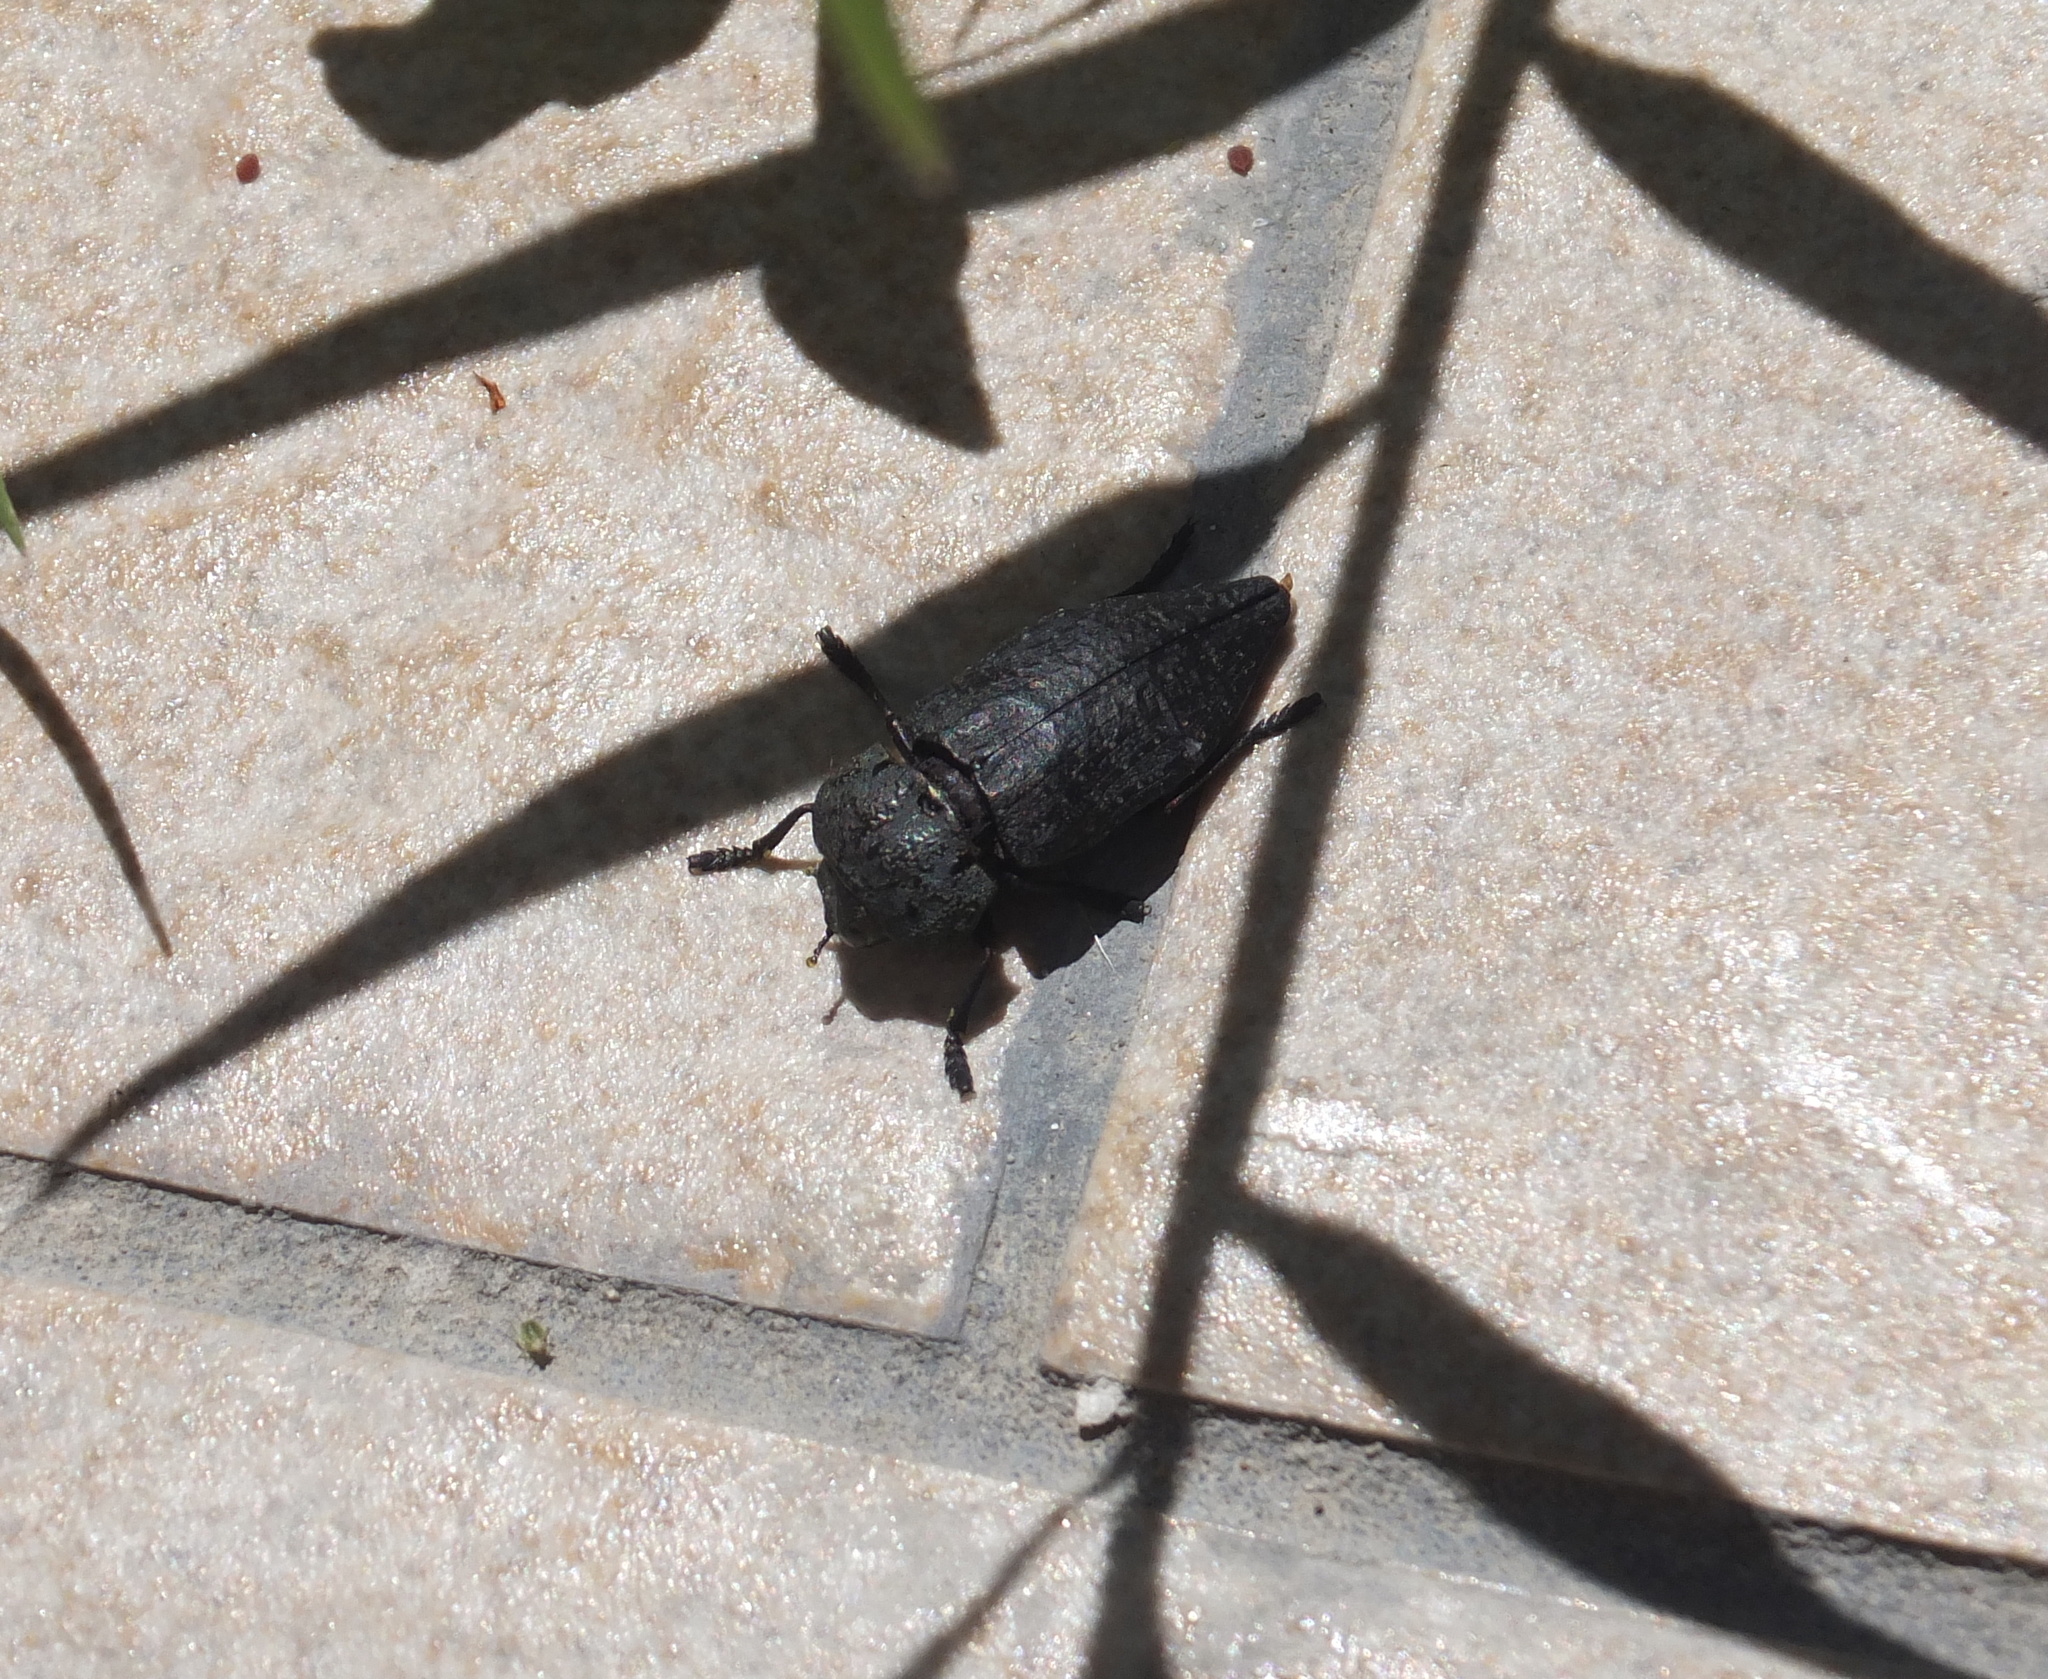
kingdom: Animalia
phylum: Arthropoda
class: Insecta
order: Coleoptera
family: Buprestidae
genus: Capnodis
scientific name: Capnodis tenebricosa
